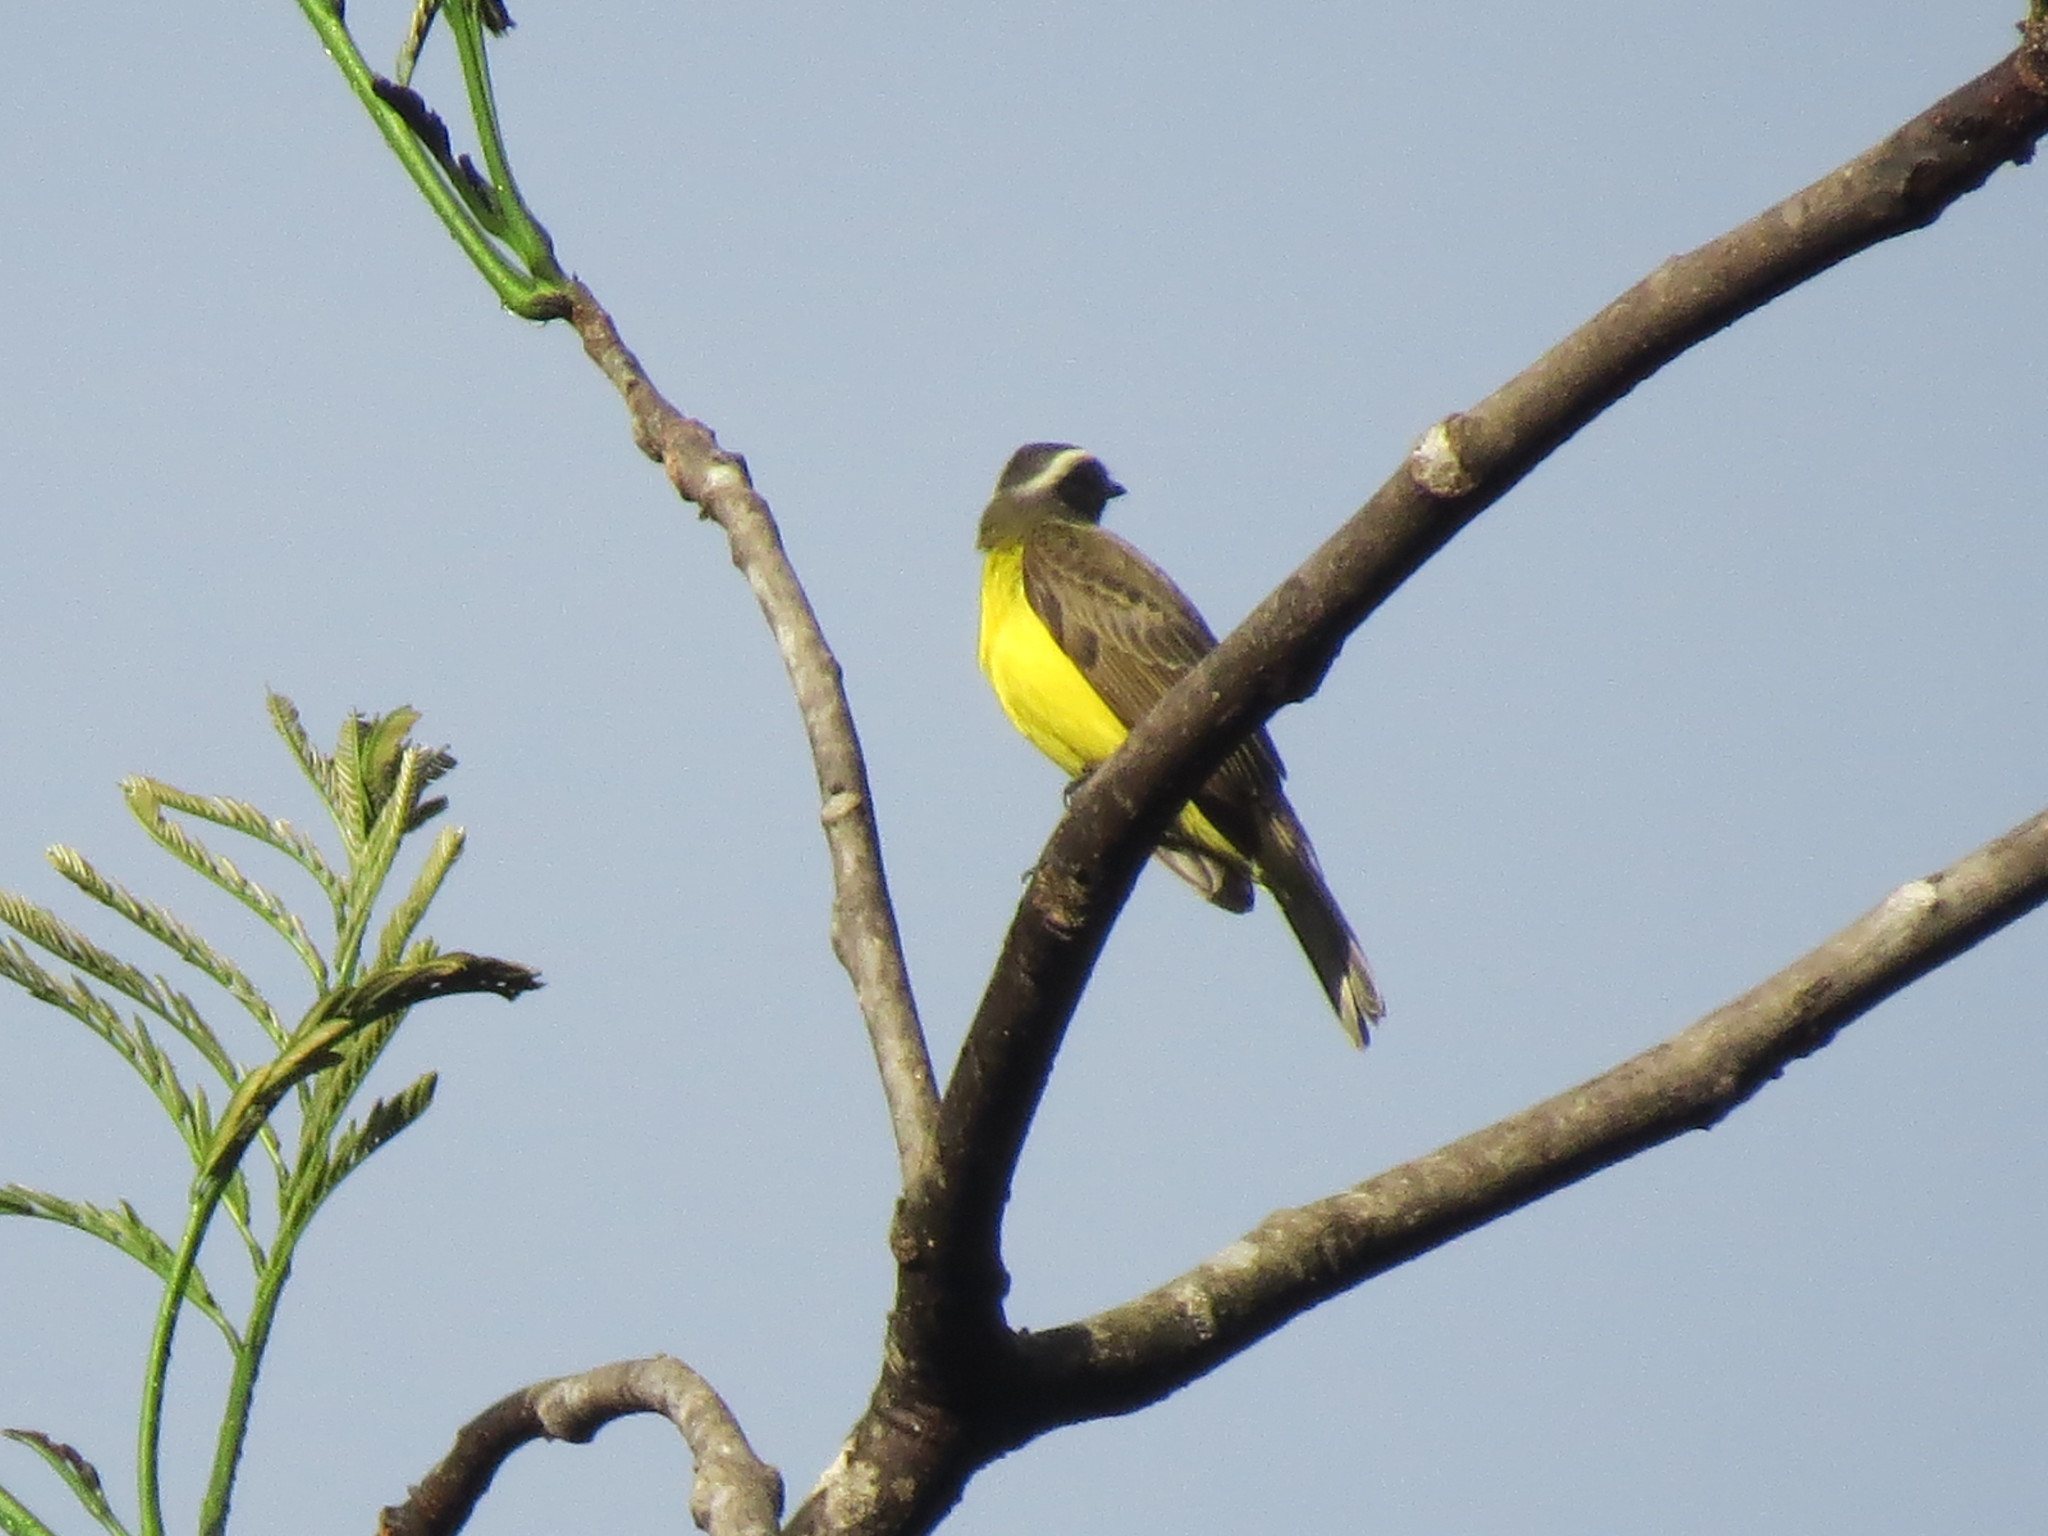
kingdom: Animalia
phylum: Chordata
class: Aves
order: Passeriformes
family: Tyrannidae
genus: Myiozetetes
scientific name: Myiozetetes similis
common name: Social flycatcher
